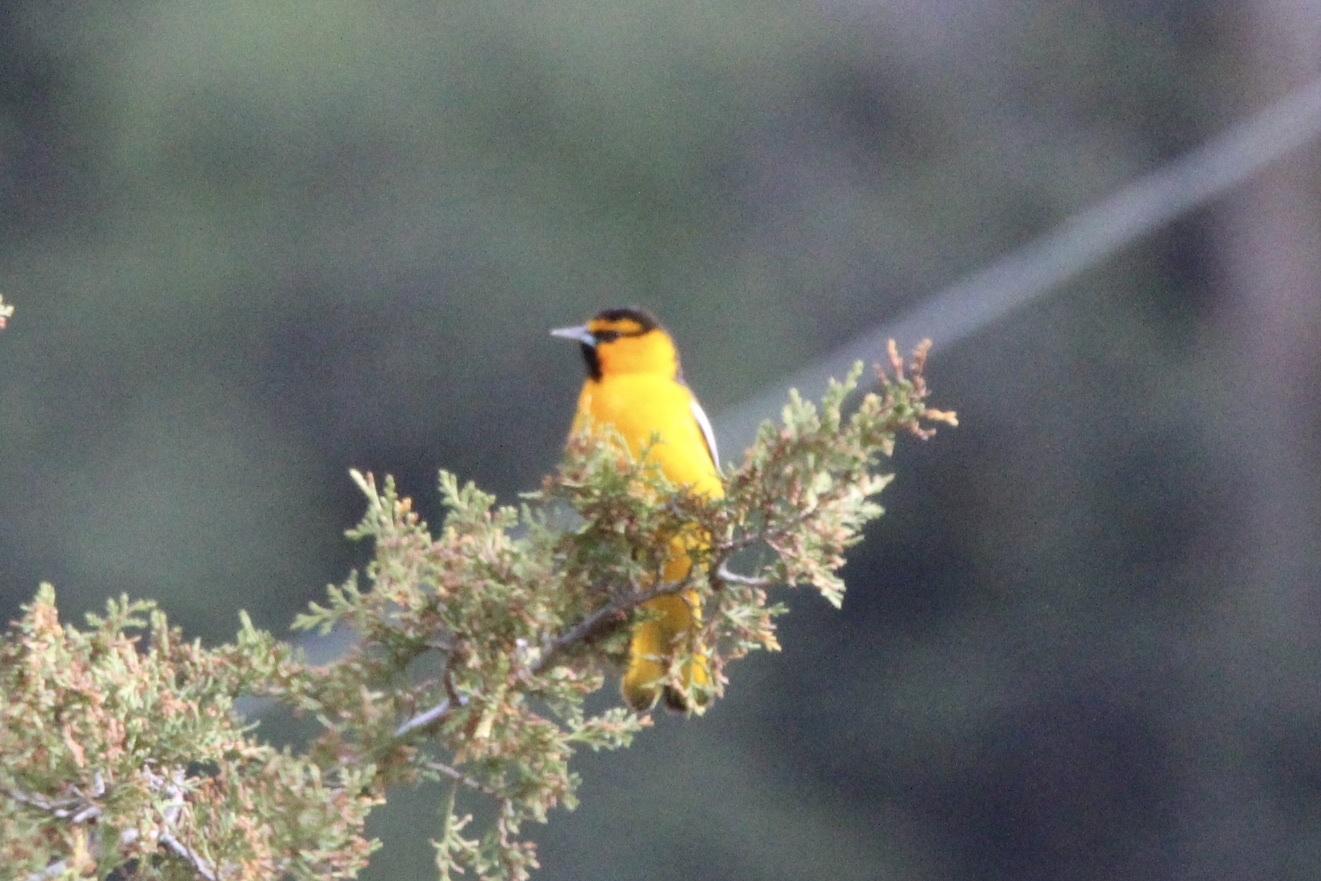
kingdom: Animalia
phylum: Chordata
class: Aves
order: Passeriformes
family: Icteridae
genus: Icterus
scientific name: Icterus bullockii
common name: Bullock's oriole
